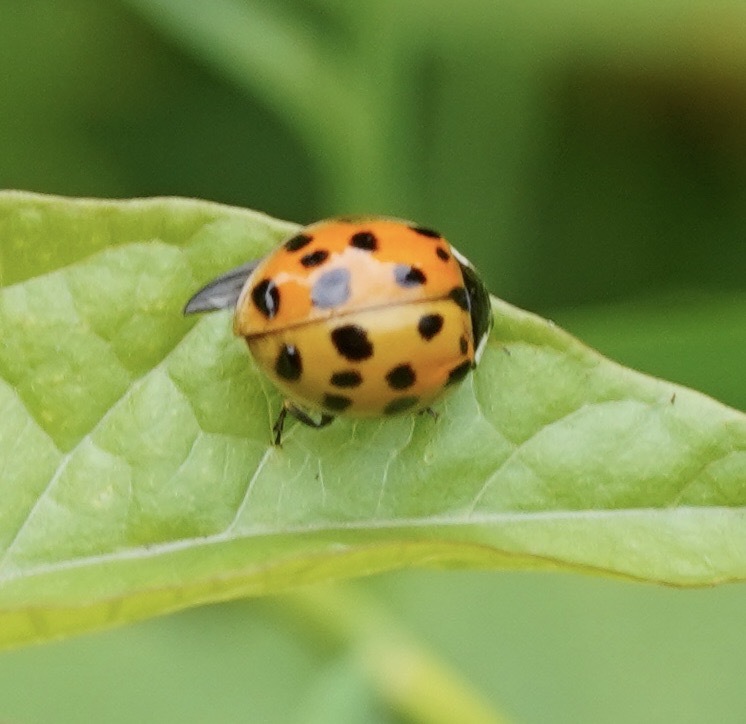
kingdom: Animalia
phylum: Arthropoda
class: Insecta
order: Coleoptera
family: Coccinellidae
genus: Harmonia
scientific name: Harmonia axyridis
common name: Harlequin ladybird
